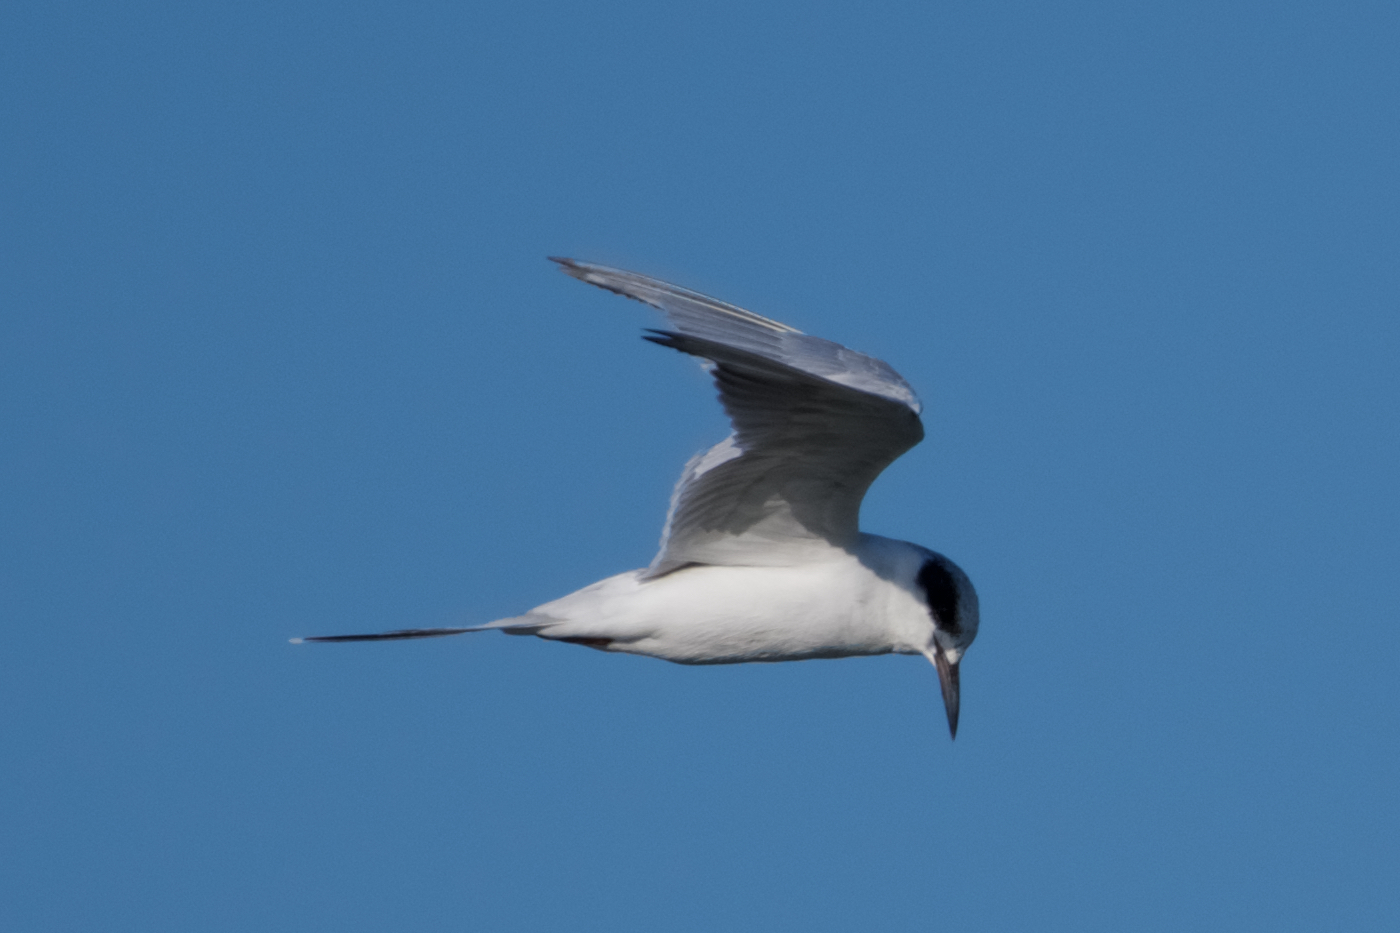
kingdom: Animalia
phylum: Chordata
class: Aves
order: Charadriiformes
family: Laridae
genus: Sterna
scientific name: Sterna forsteri
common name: Forster's tern
